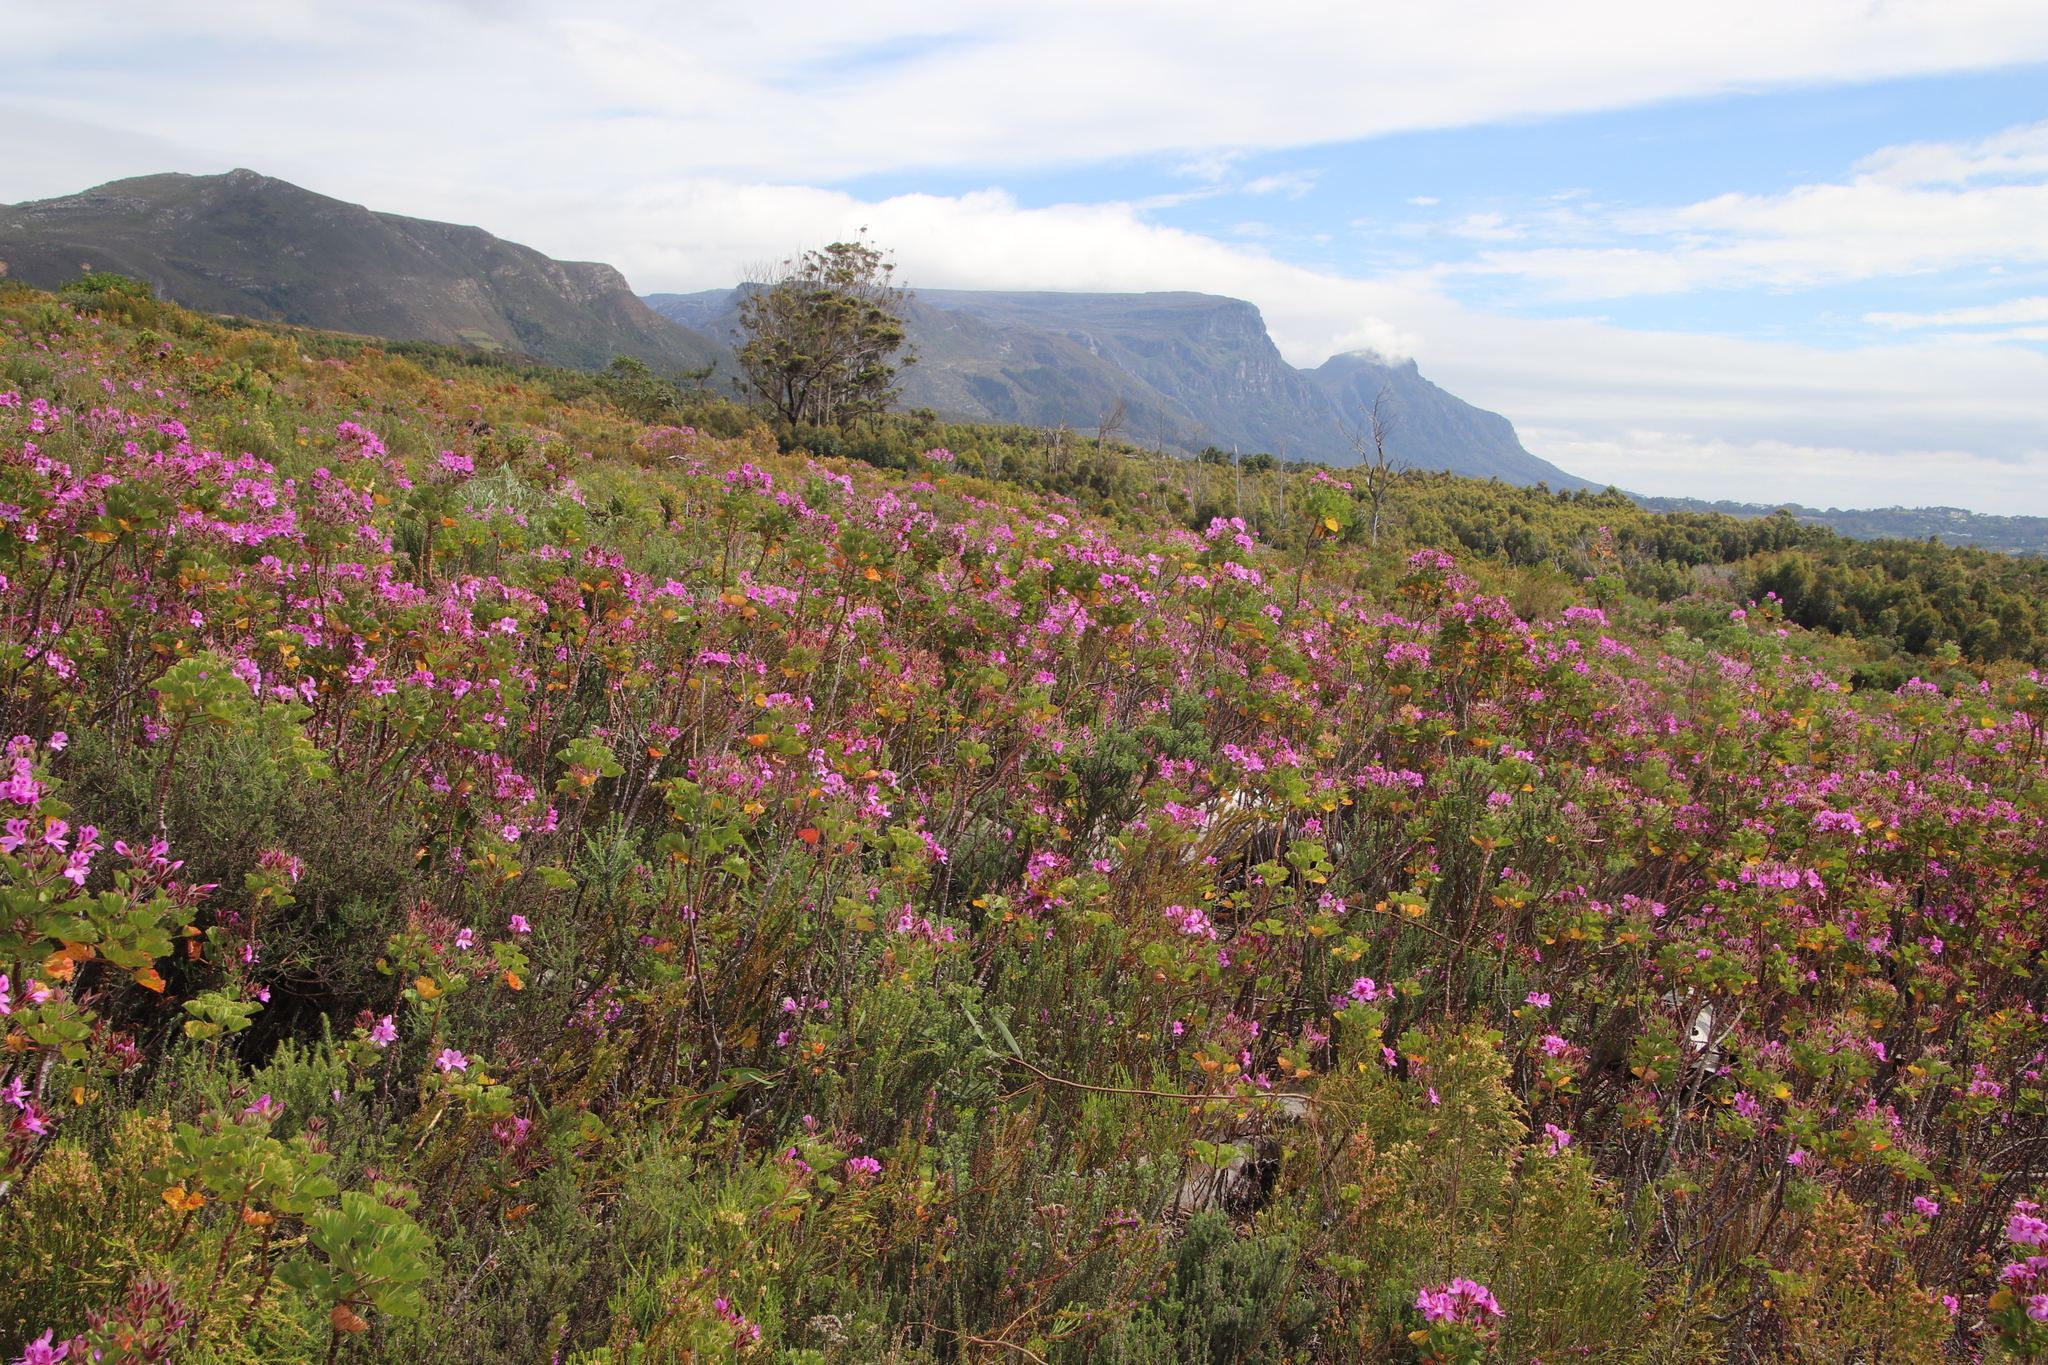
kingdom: Plantae
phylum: Tracheophyta
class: Magnoliopsida
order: Geraniales
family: Geraniaceae
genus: Pelargonium
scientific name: Pelargonium cucullatum
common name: Tree pelargonium
